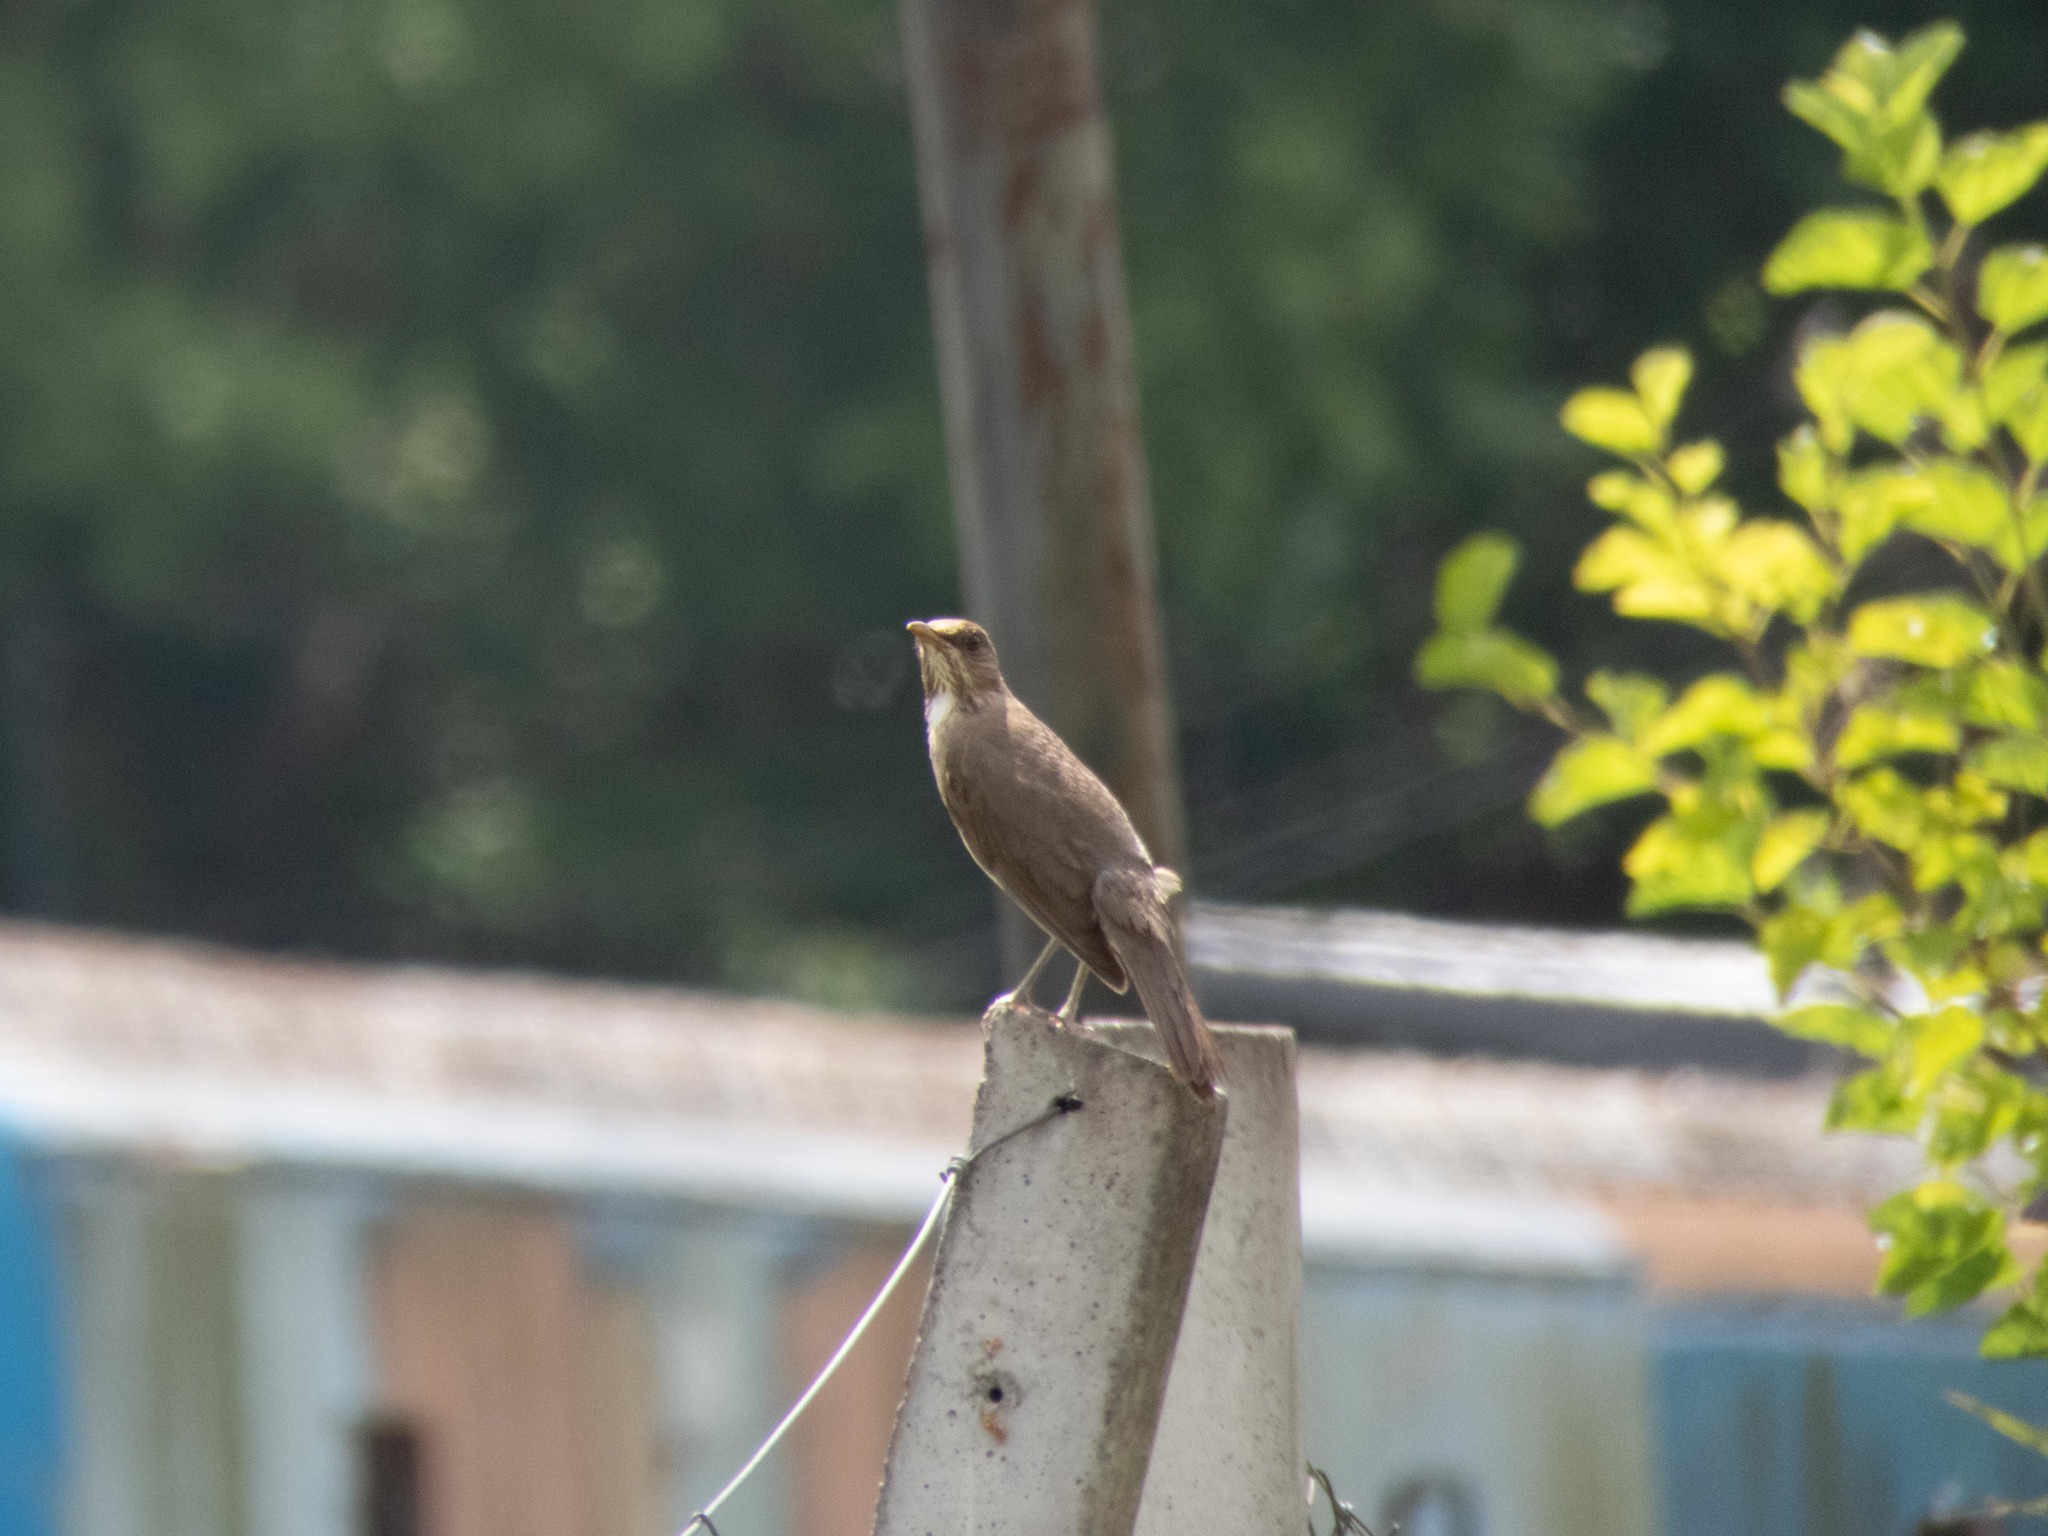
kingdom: Animalia
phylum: Chordata
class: Aves
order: Passeriformes
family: Turdidae
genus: Turdus
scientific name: Turdus amaurochalinus
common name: Creamy-bellied thrush
